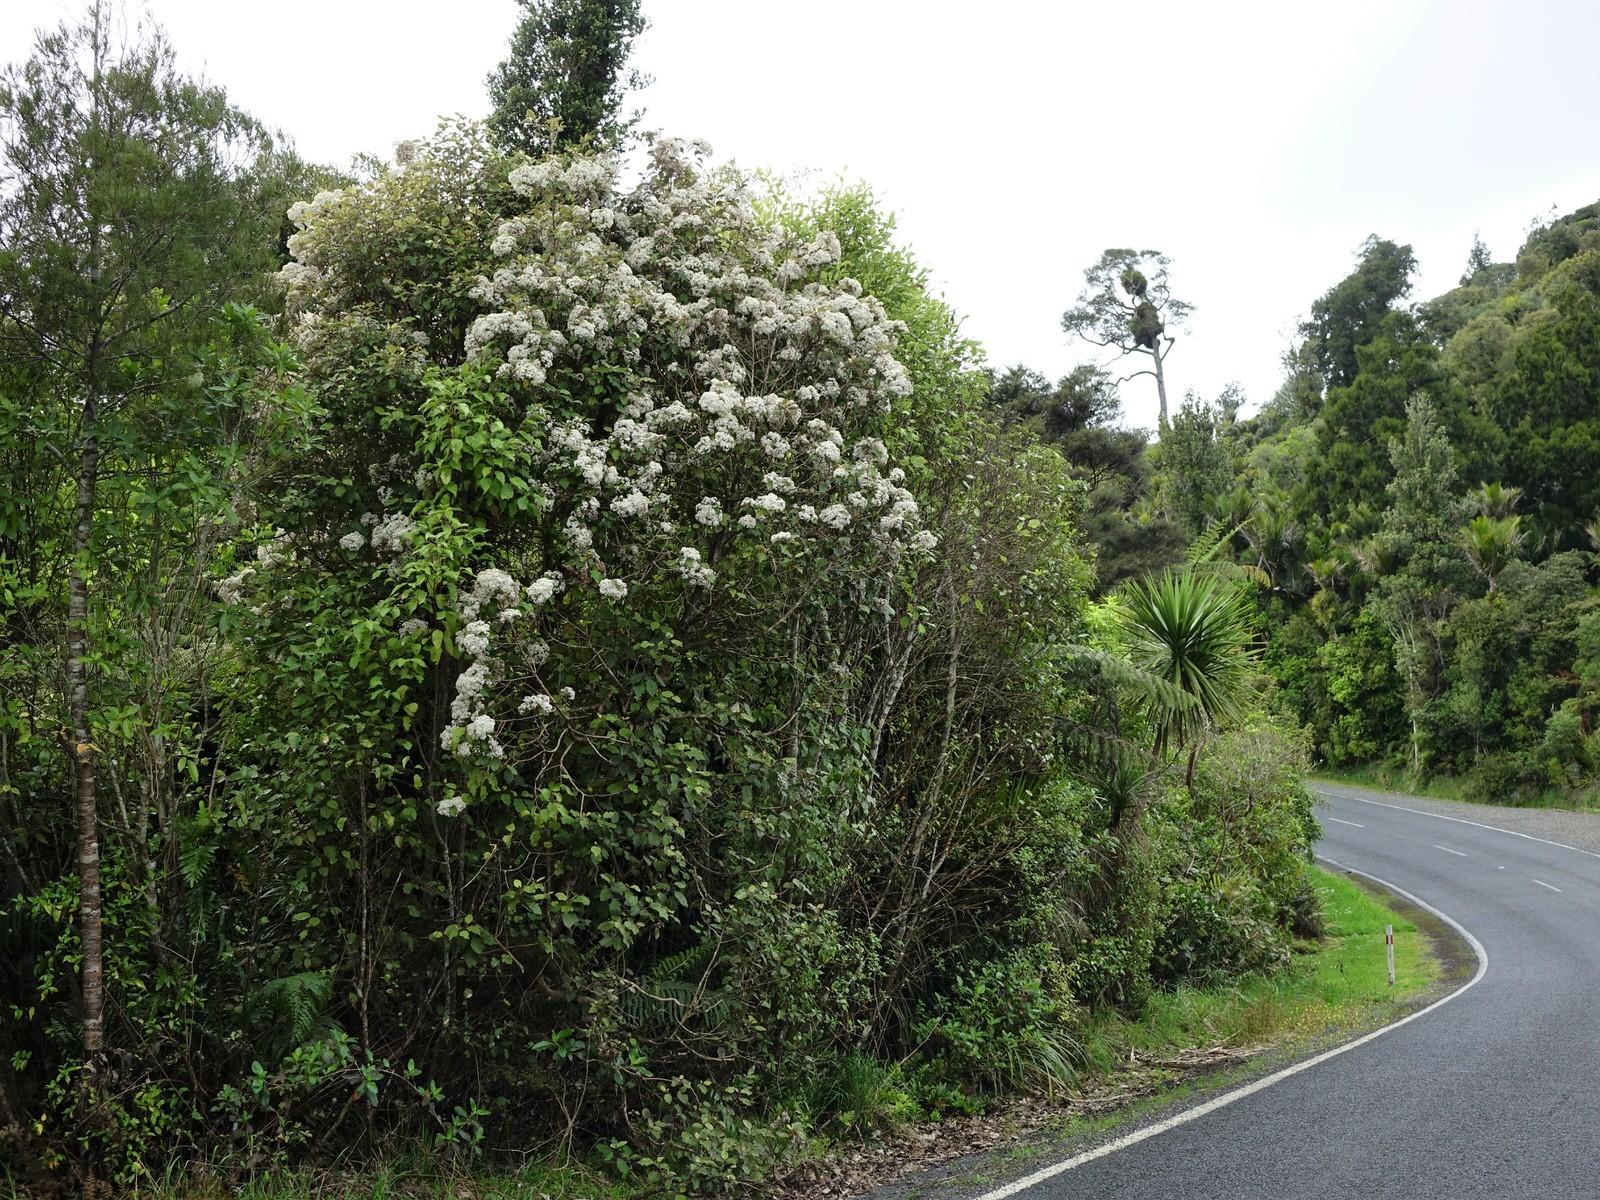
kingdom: Plantae
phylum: Tracheophyta
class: Magnoliopsida
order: Asterales
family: Asteraceae
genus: Olearia
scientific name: Olearia rani
